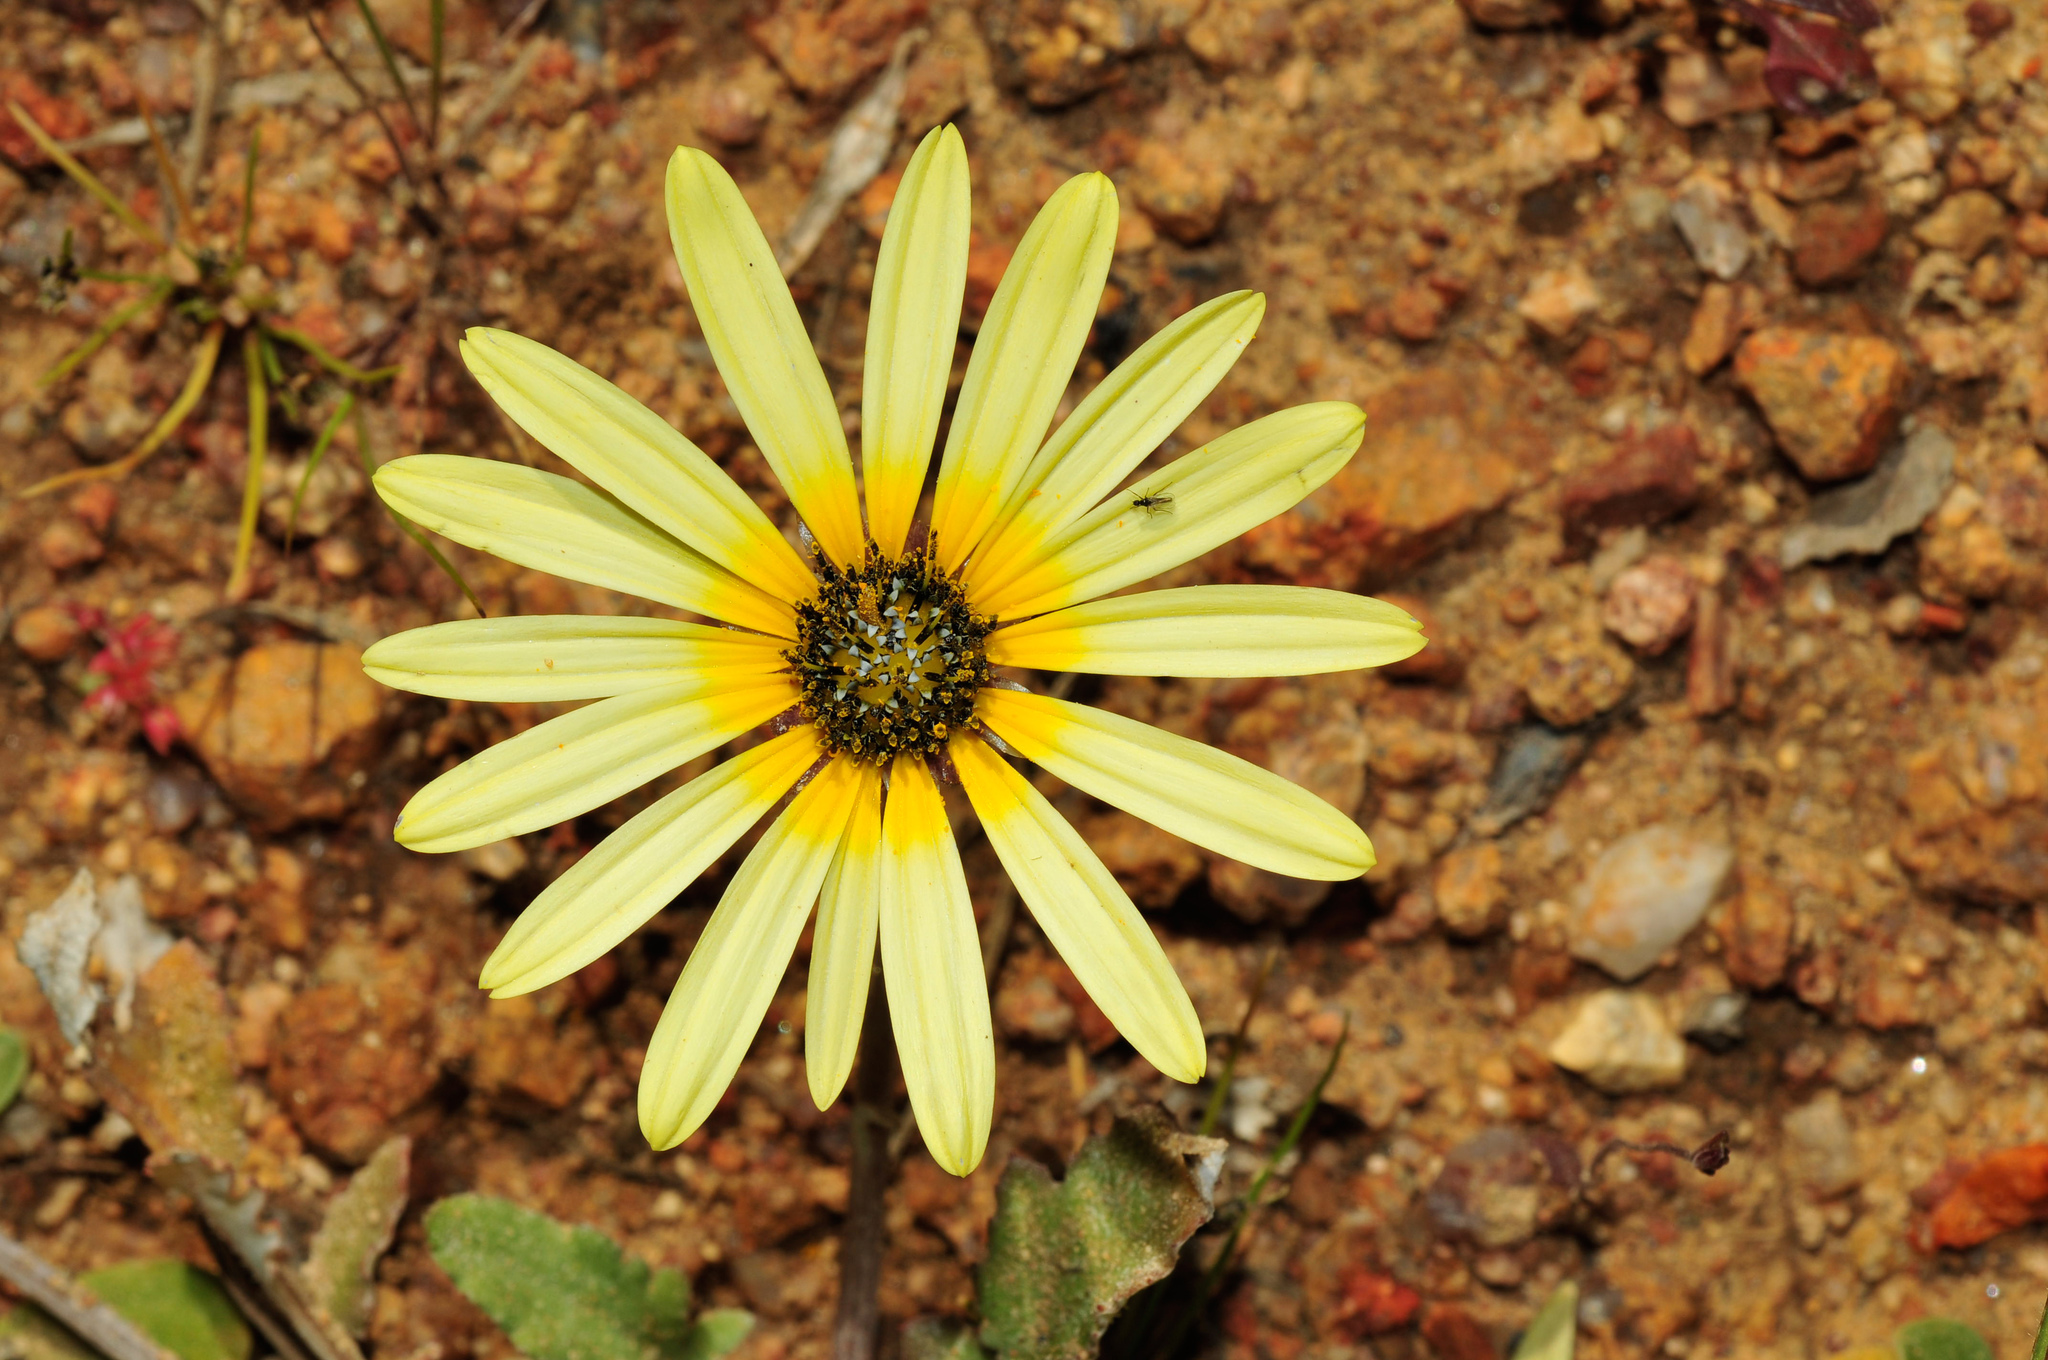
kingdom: Plantae
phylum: Tracheophyta
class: Magnoliopsida
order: Asterales
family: Asteraceae
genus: Arctotheca
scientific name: Arctotheca calendula
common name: Capeweed
